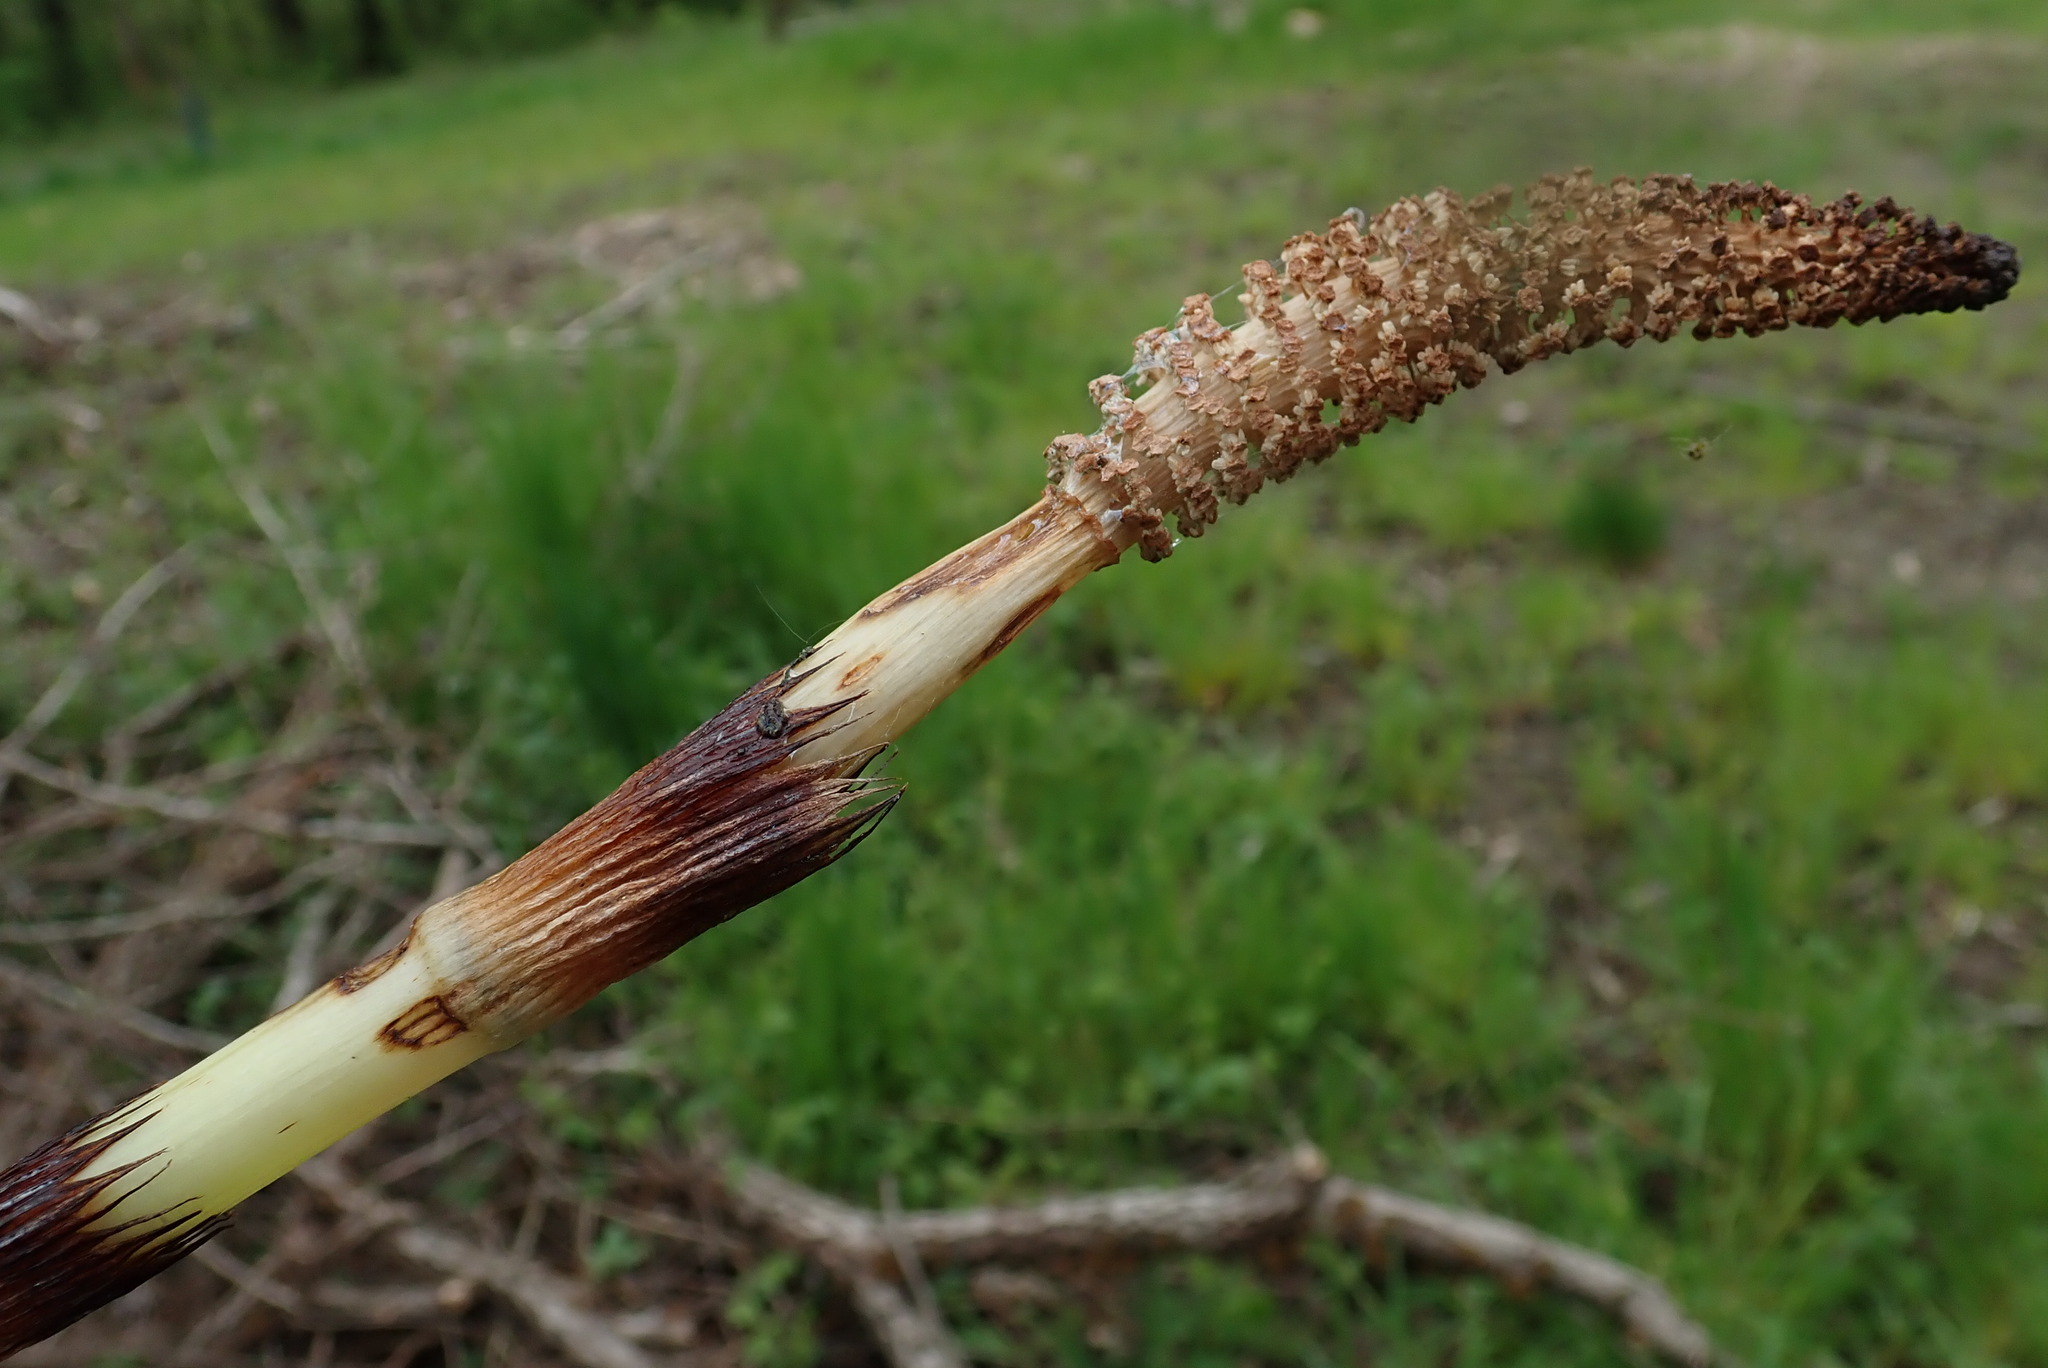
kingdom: Plantae
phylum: Tracheophyta
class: Polypodiopsida
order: Equisetales
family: Equisetaceae
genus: Equisetum
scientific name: Equisetum telmateia
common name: Great horsetail
